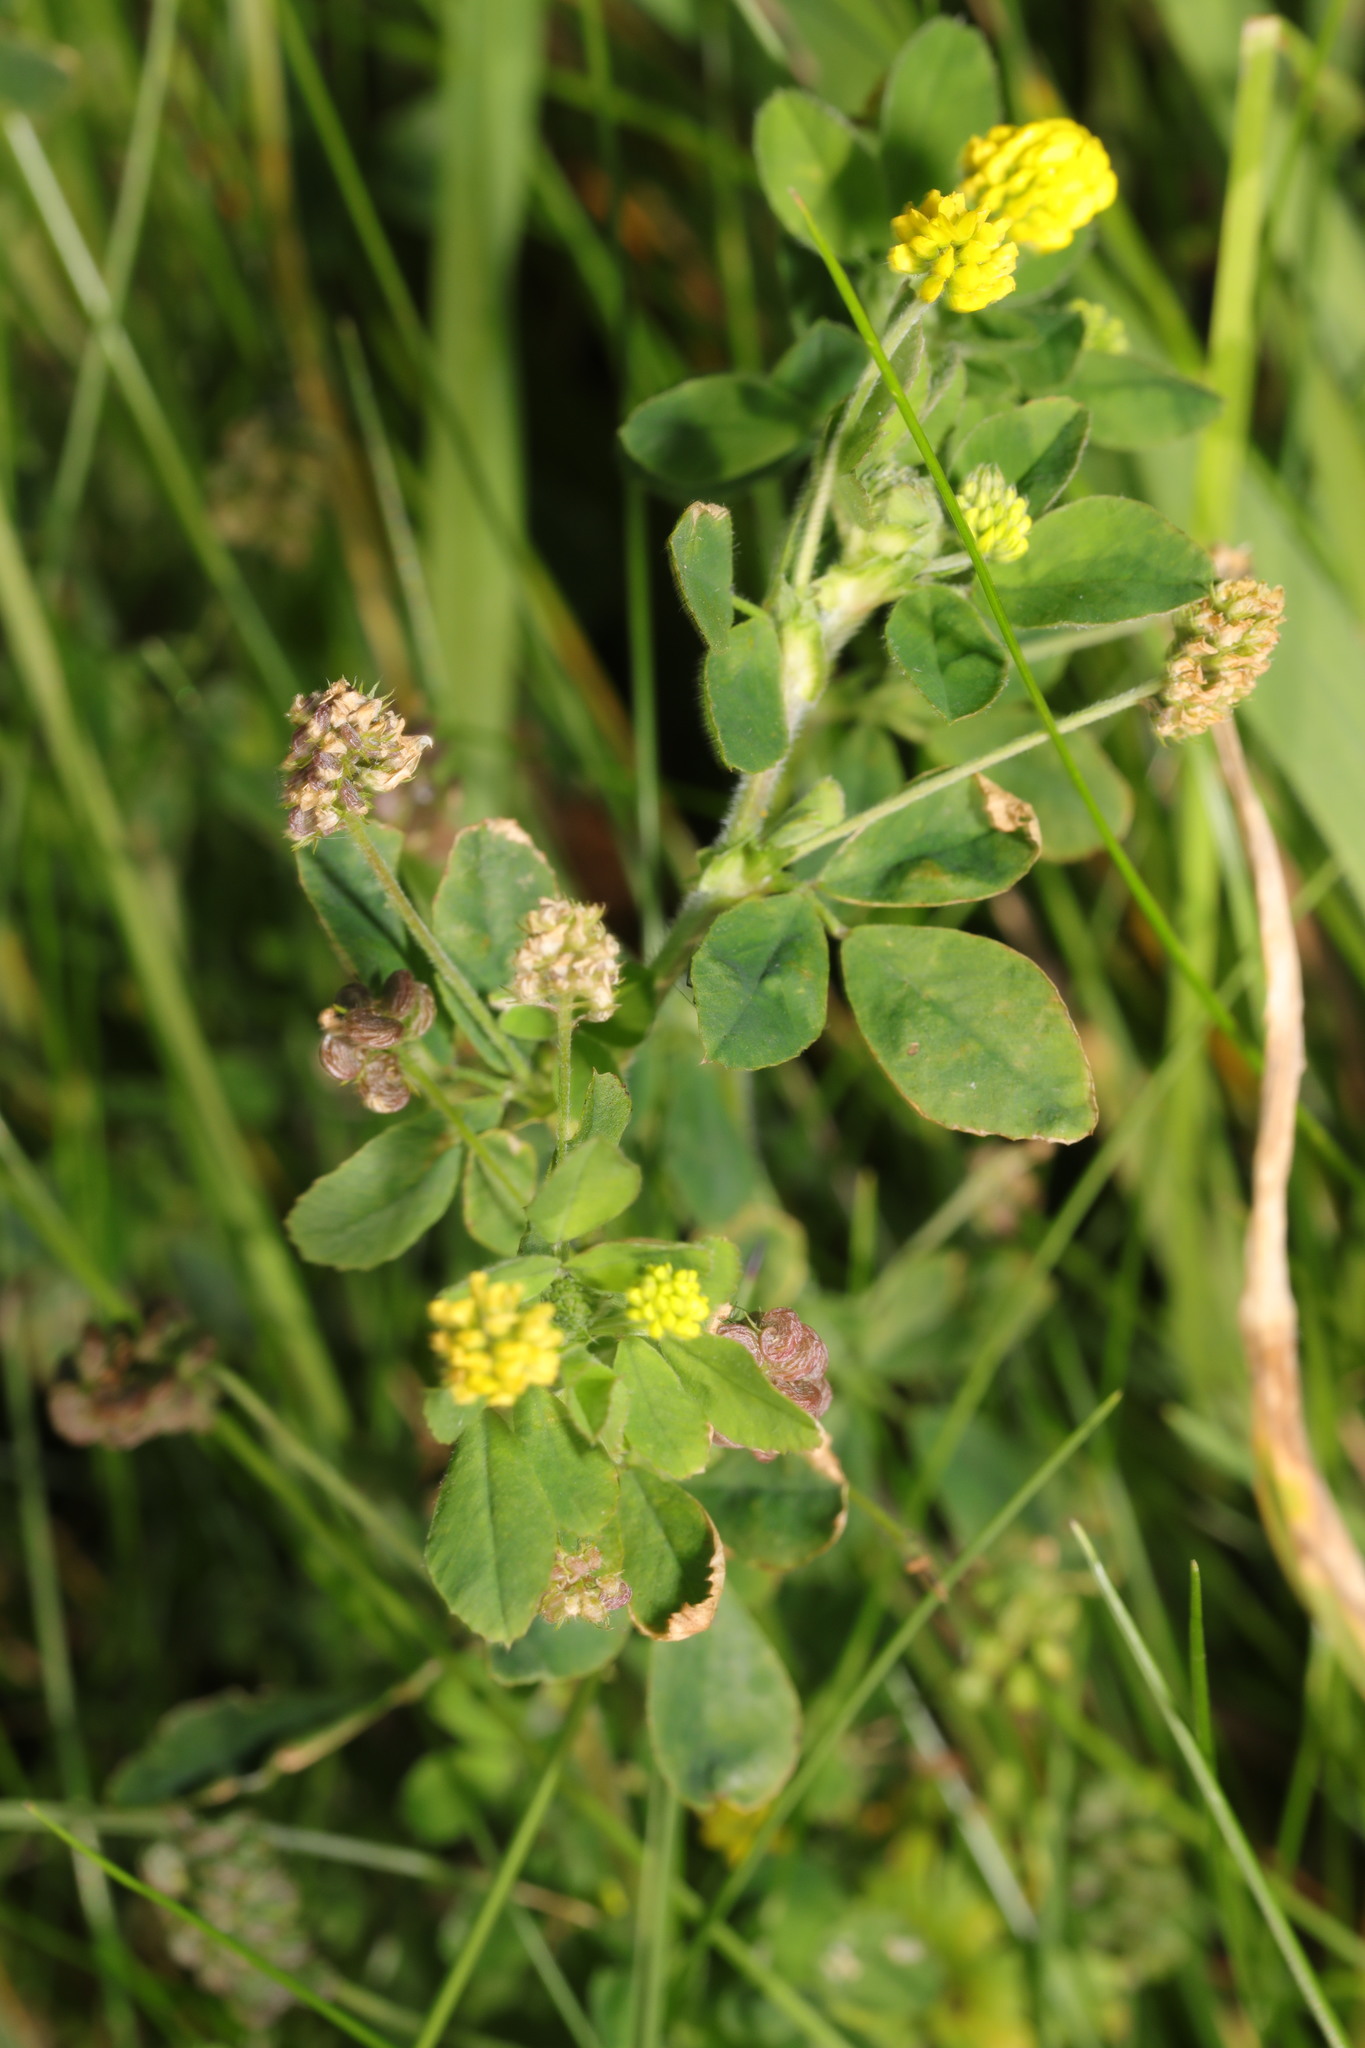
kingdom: Plantae
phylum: Tracheophyta
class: Magnoliopsida
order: Fabales
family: Fabaceae
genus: Medicago
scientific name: Medicago lupulina
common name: Black medick
